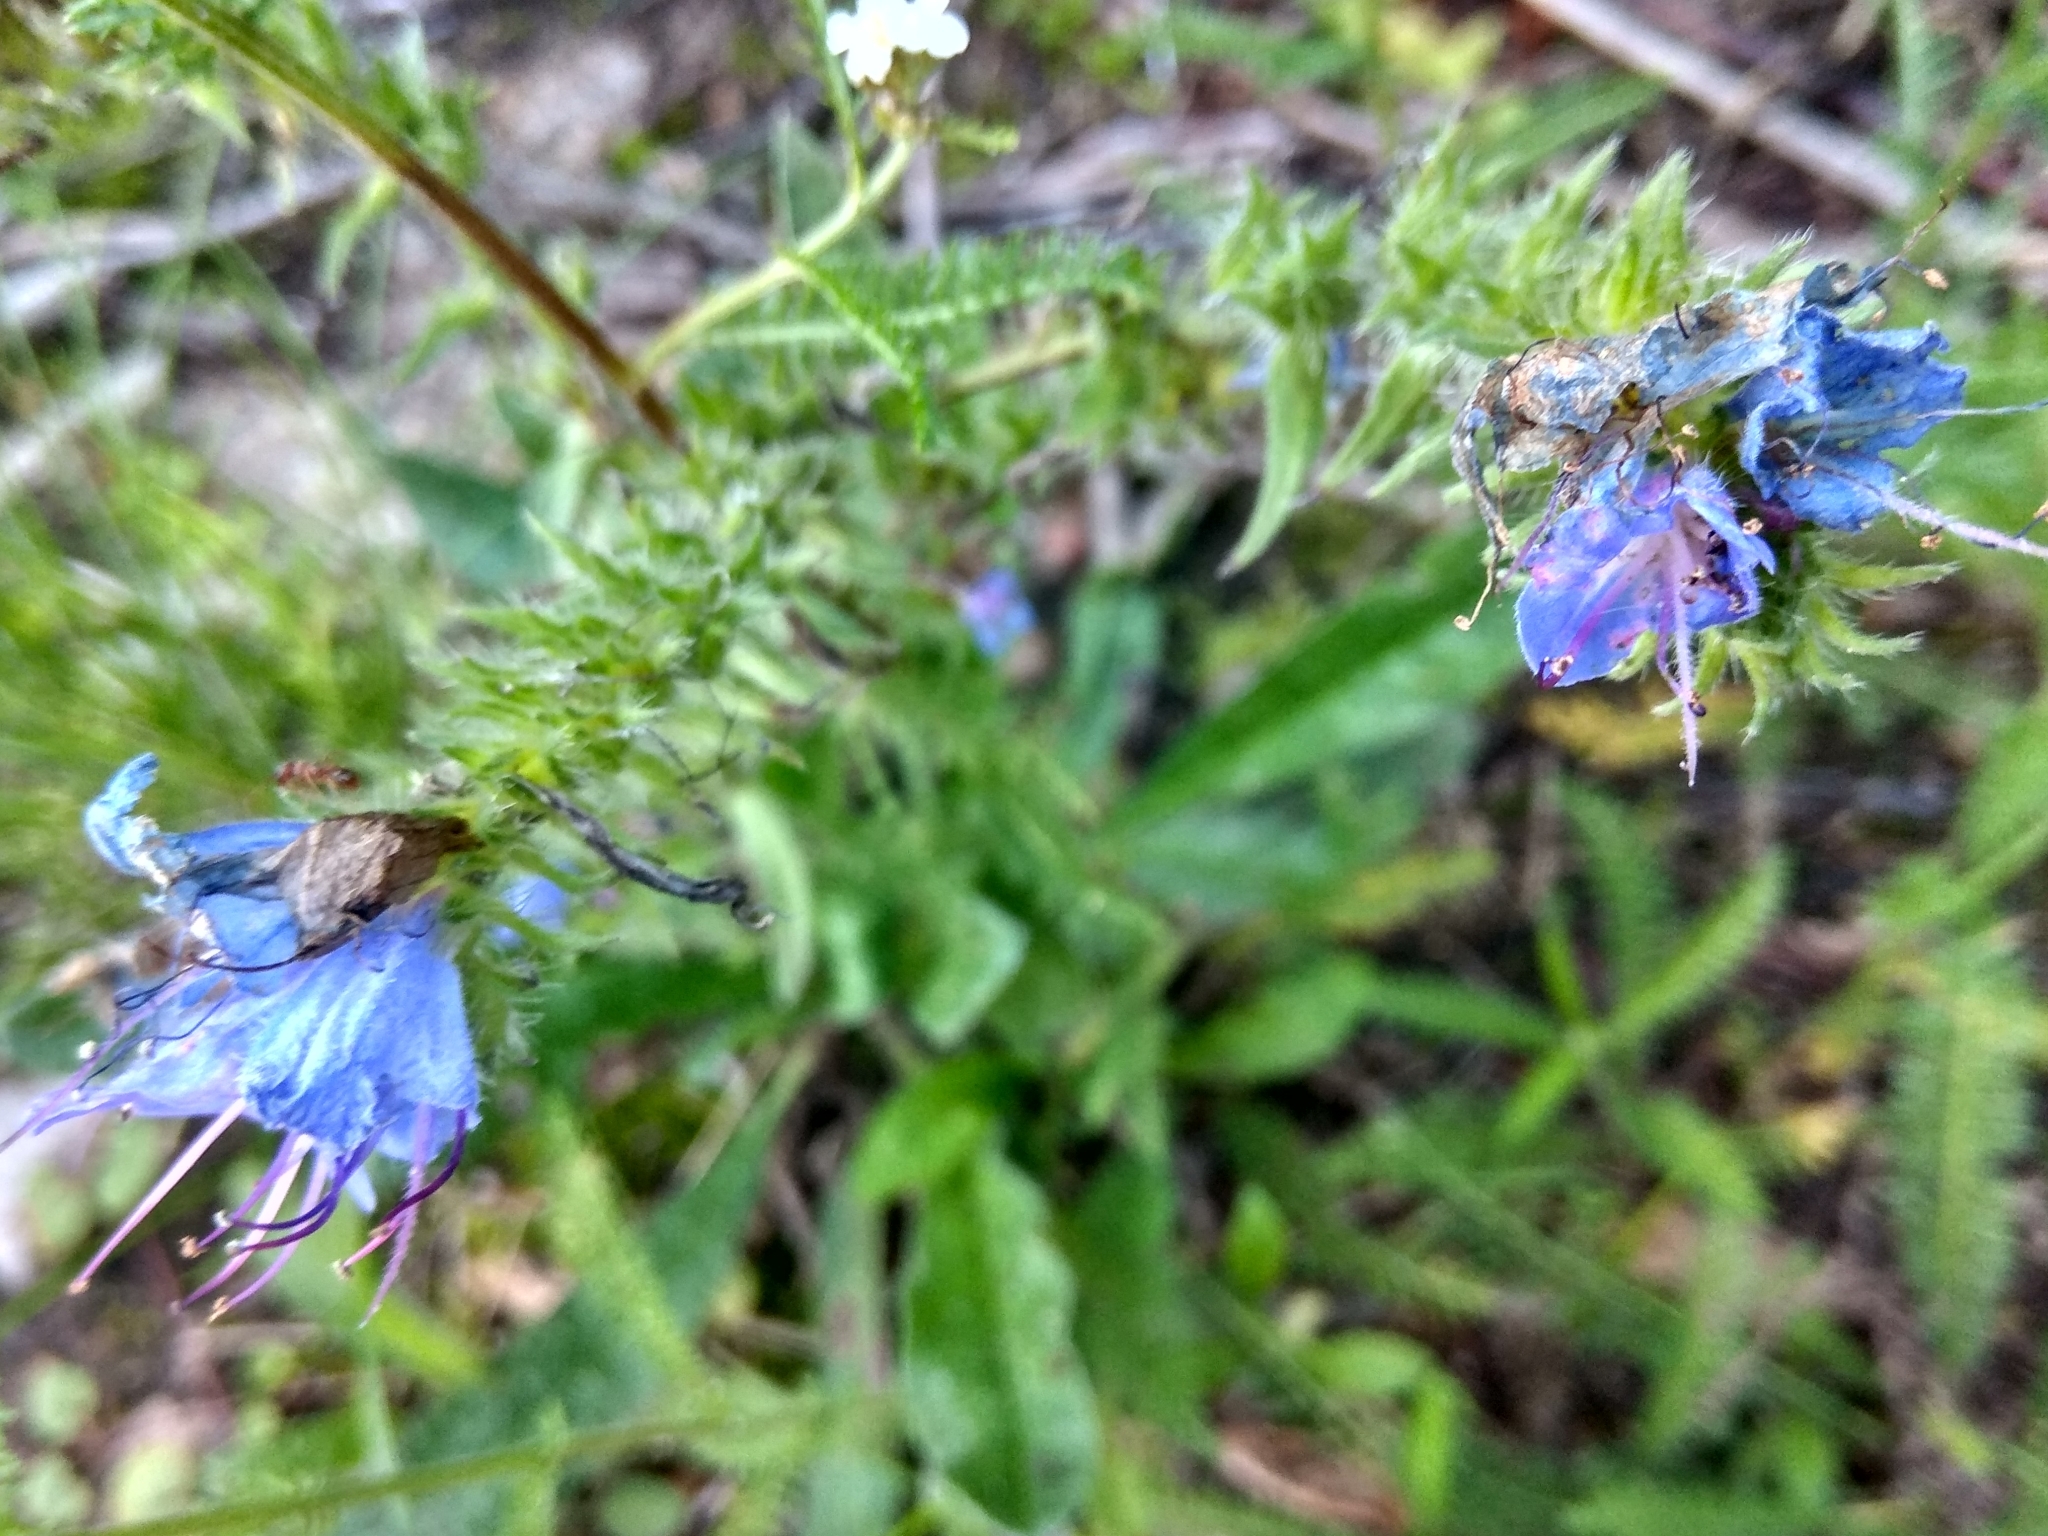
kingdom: Plantae
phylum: Tracheophyta
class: Magnoliopsida
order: Boraginales
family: Boraginaceae
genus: Echium
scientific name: Echium vulgare
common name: Common viper's bugloss
